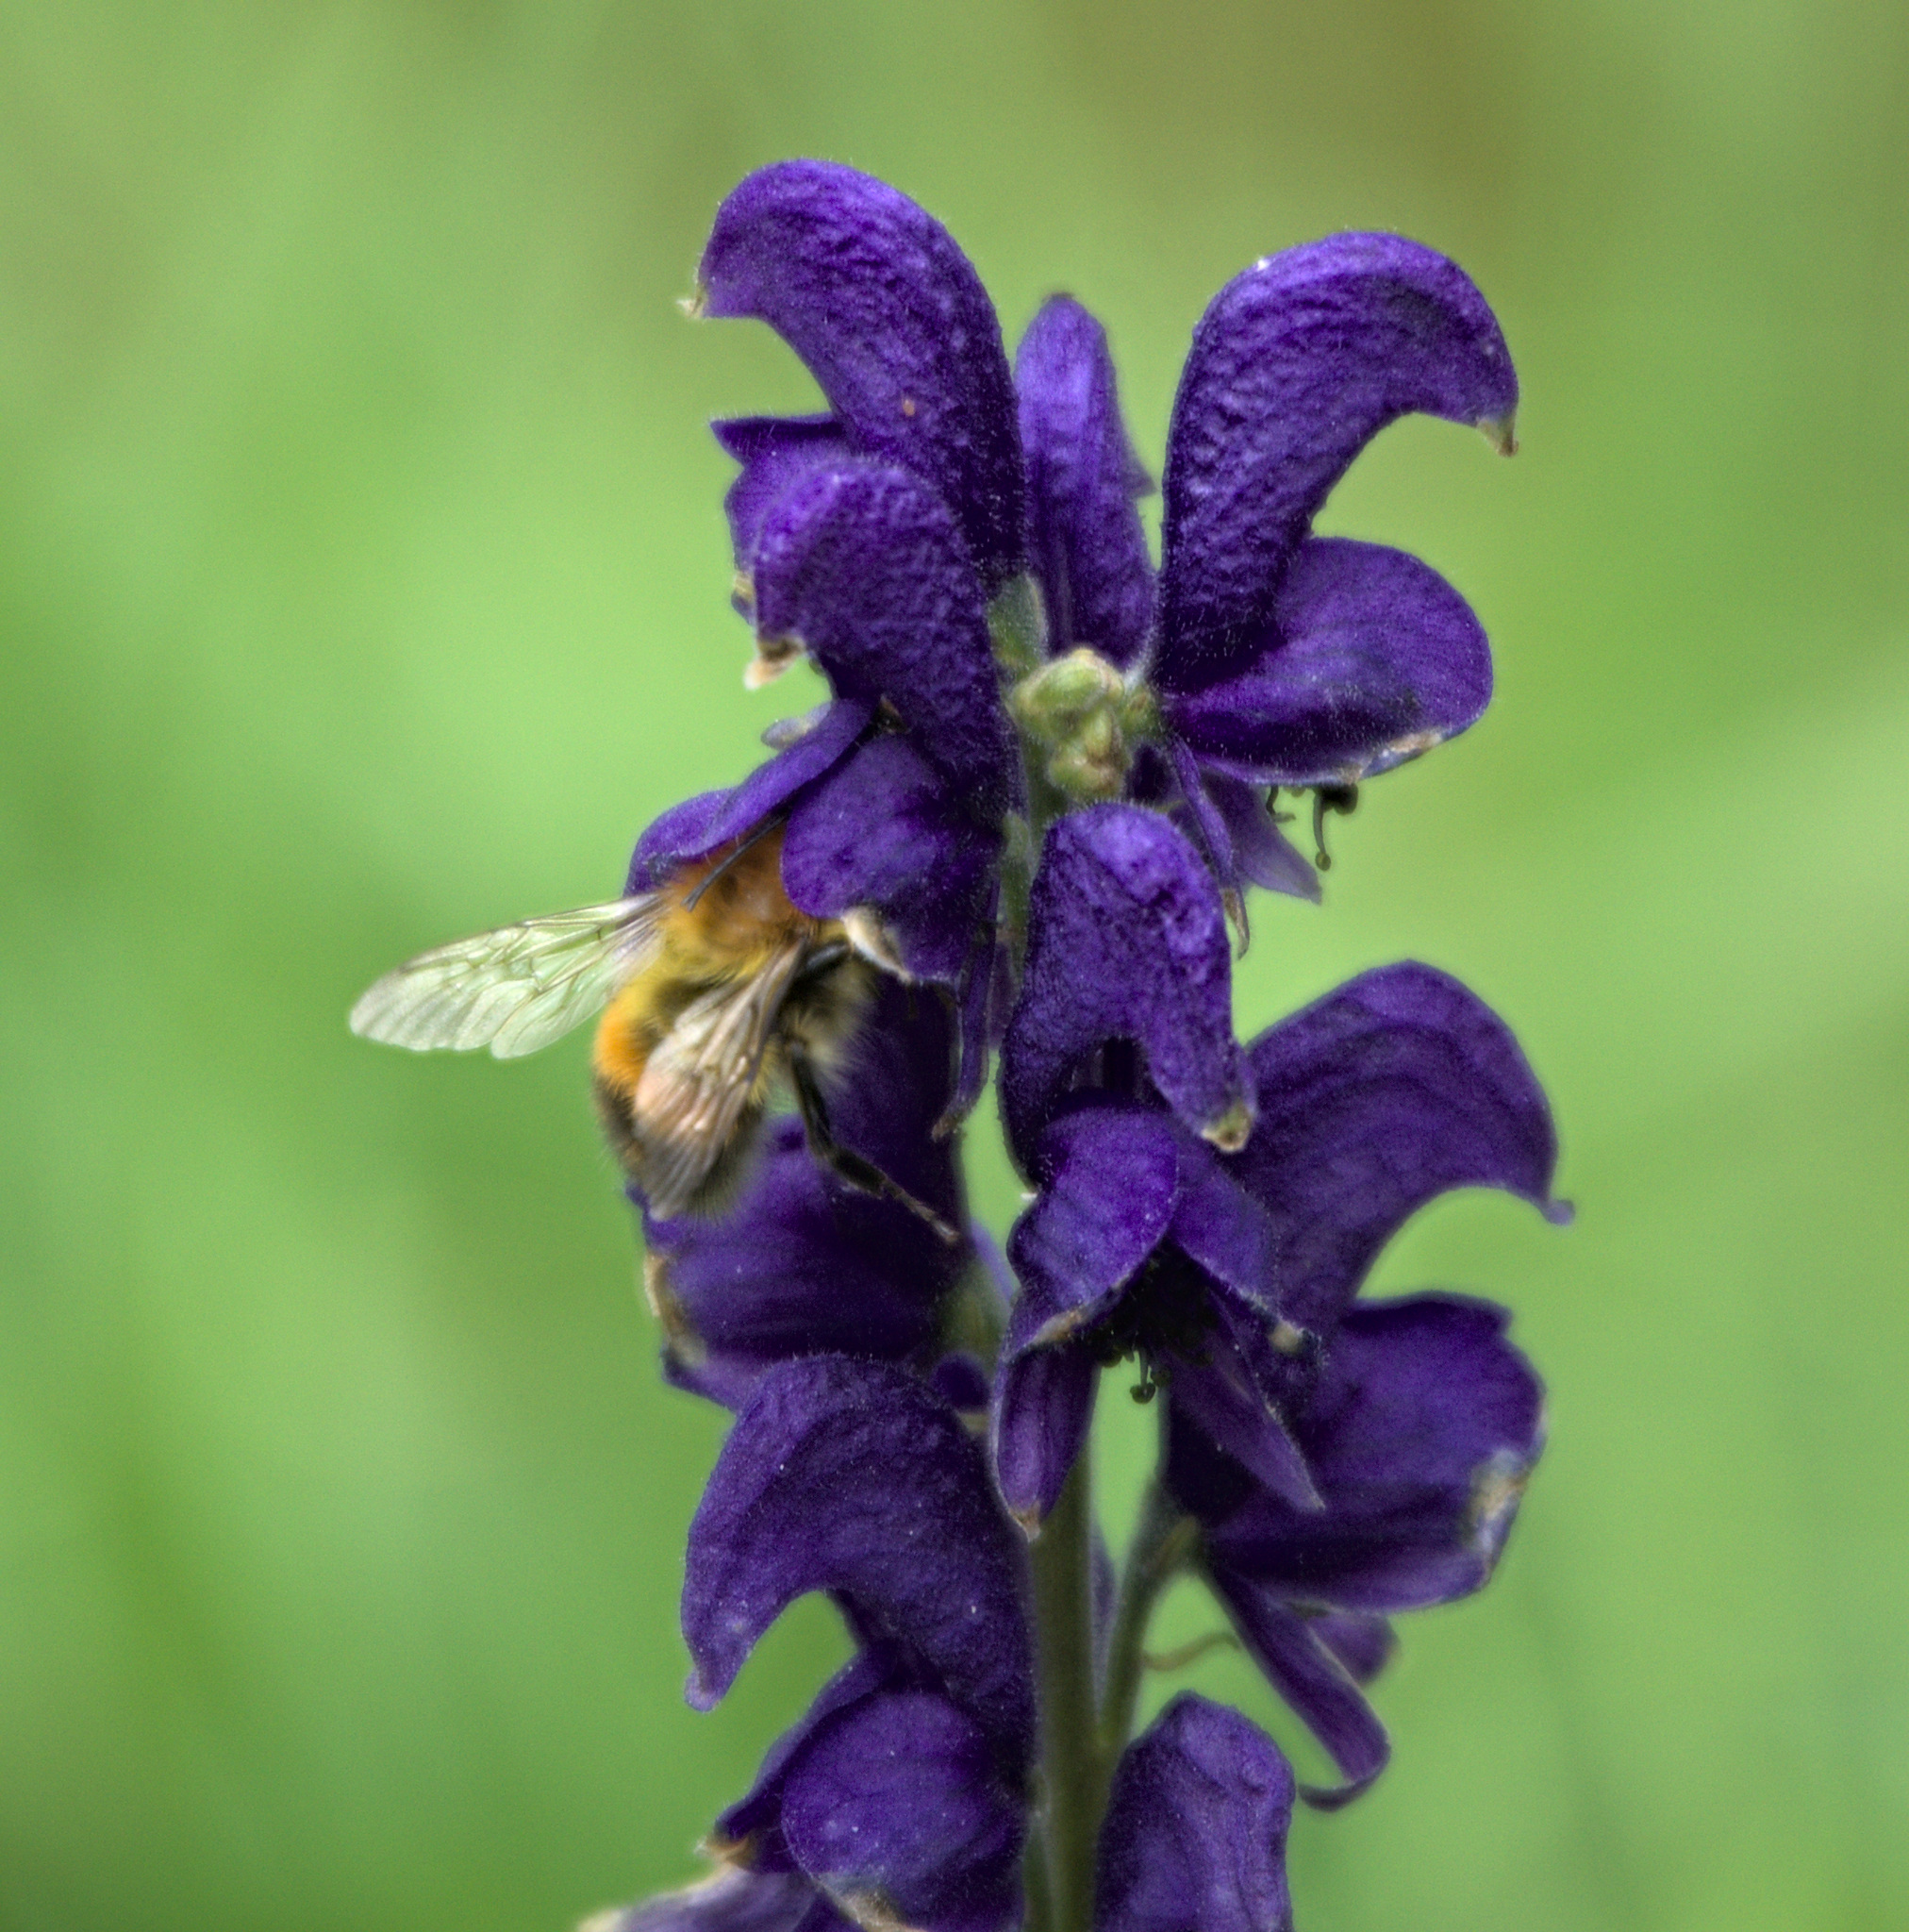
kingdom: Animalia
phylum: Arthropoda
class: Insecta
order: Hymenoptera
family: Apidae
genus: Bombus
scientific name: Bombus consobrinus
